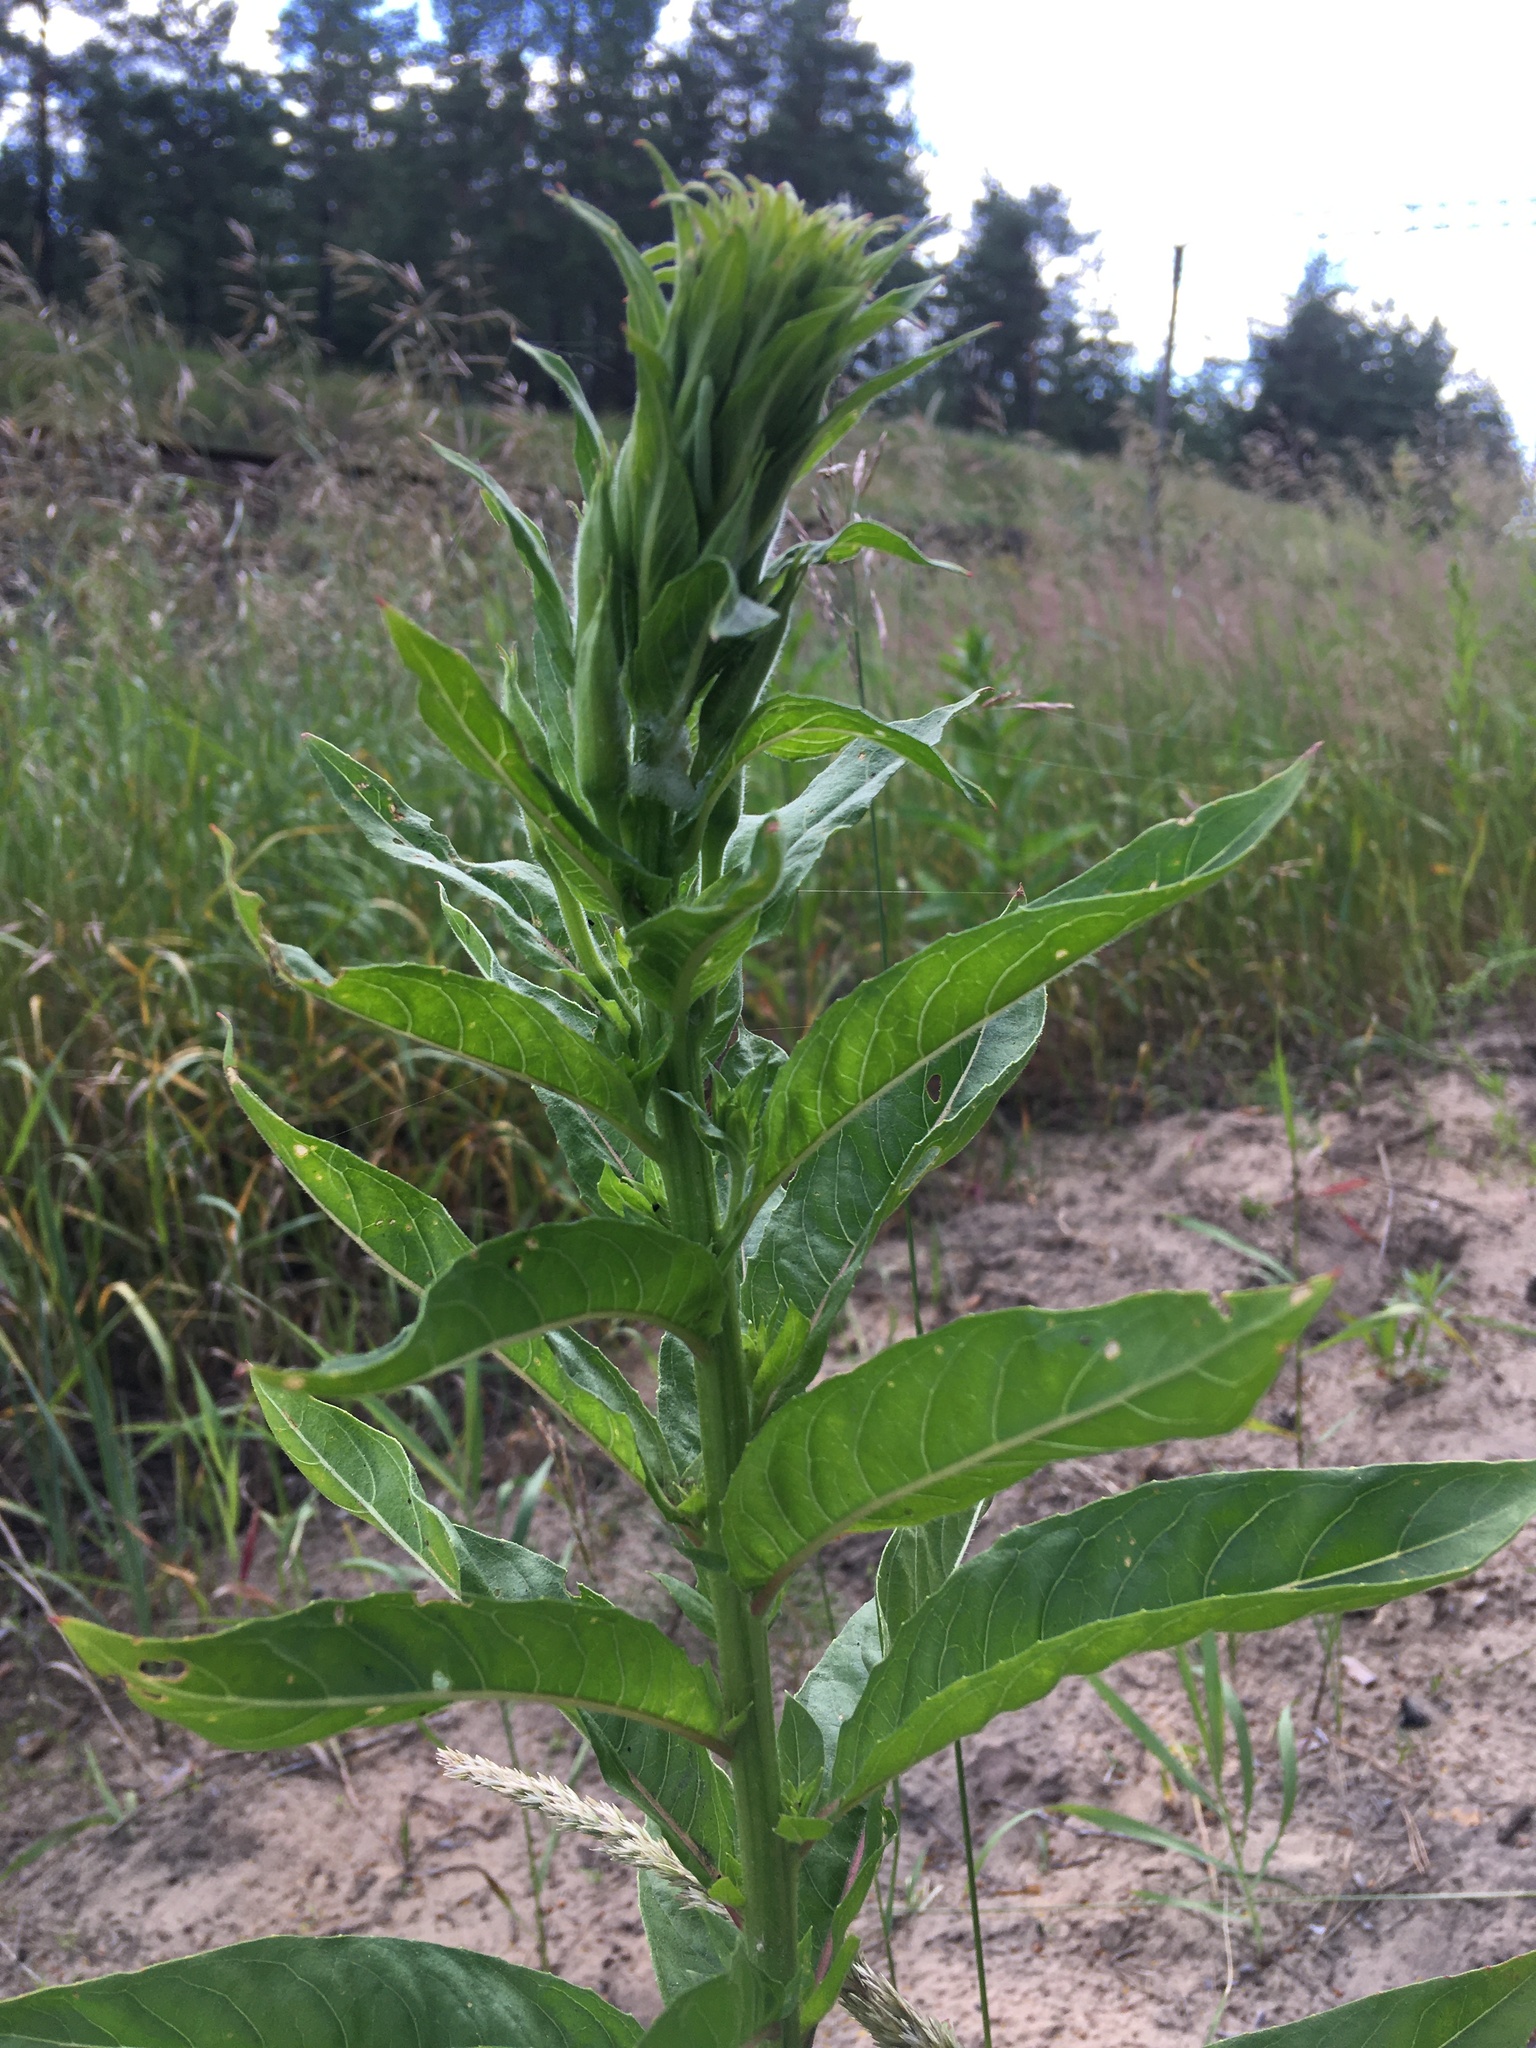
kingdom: Plantae
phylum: Tracheophyta
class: Magnoliopsida
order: Myrtales
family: Onagraceae
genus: Oenothera
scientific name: Oenothera
